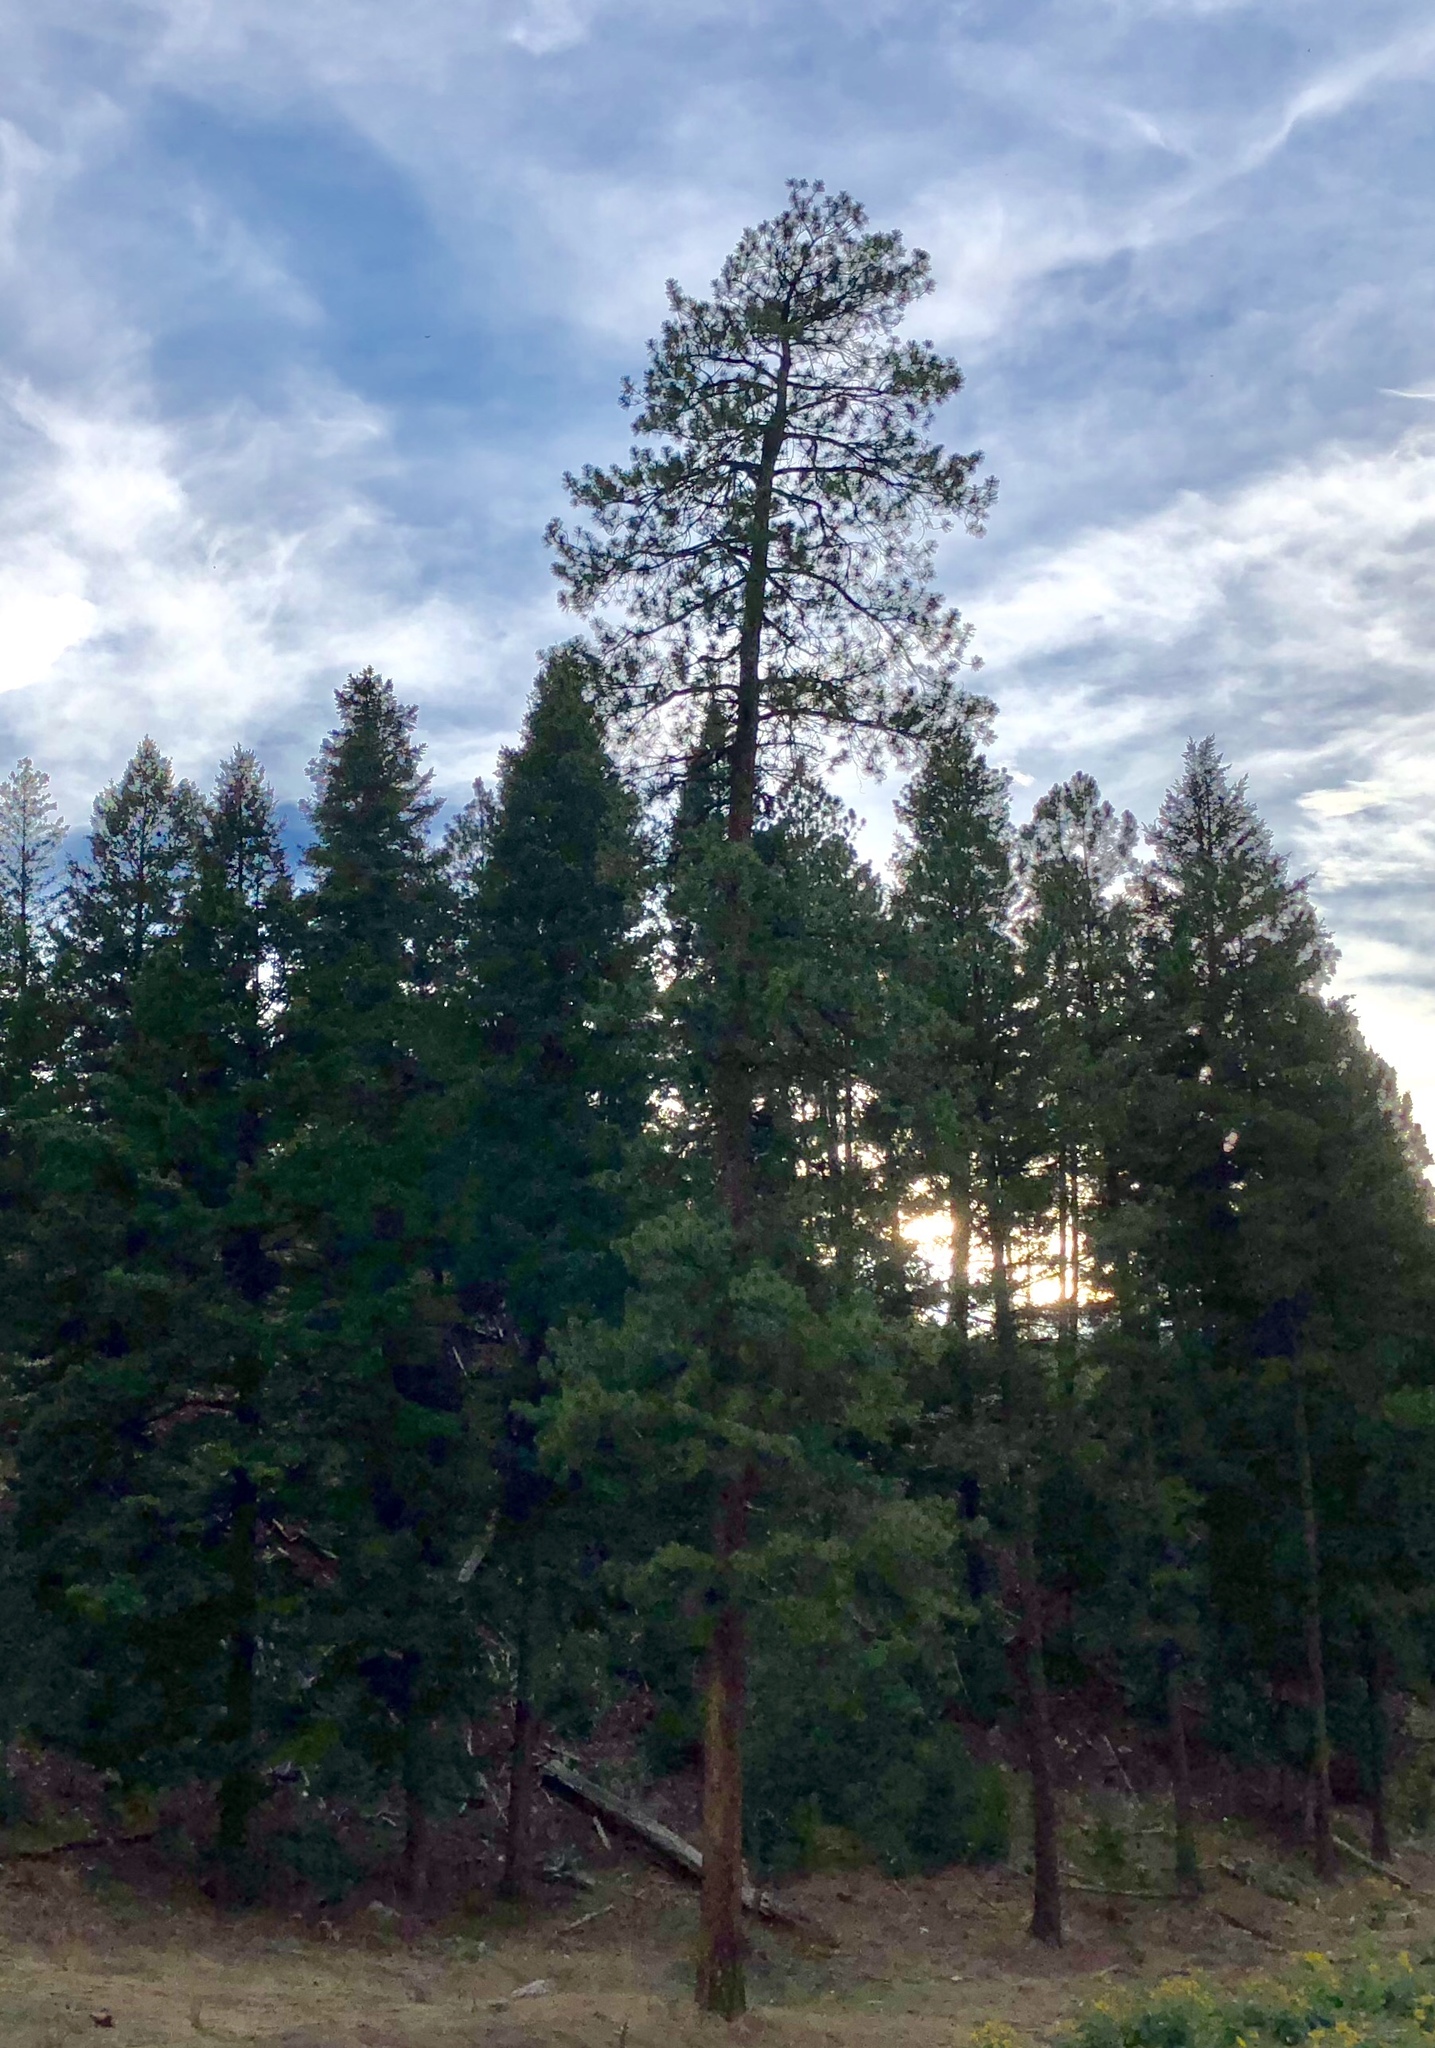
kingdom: Plantae
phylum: Tracheophyta
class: Pinopsida
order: Pinales
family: Pinaceae
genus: Pinus
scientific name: Pinus ponderosa
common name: Western yellow-pine
